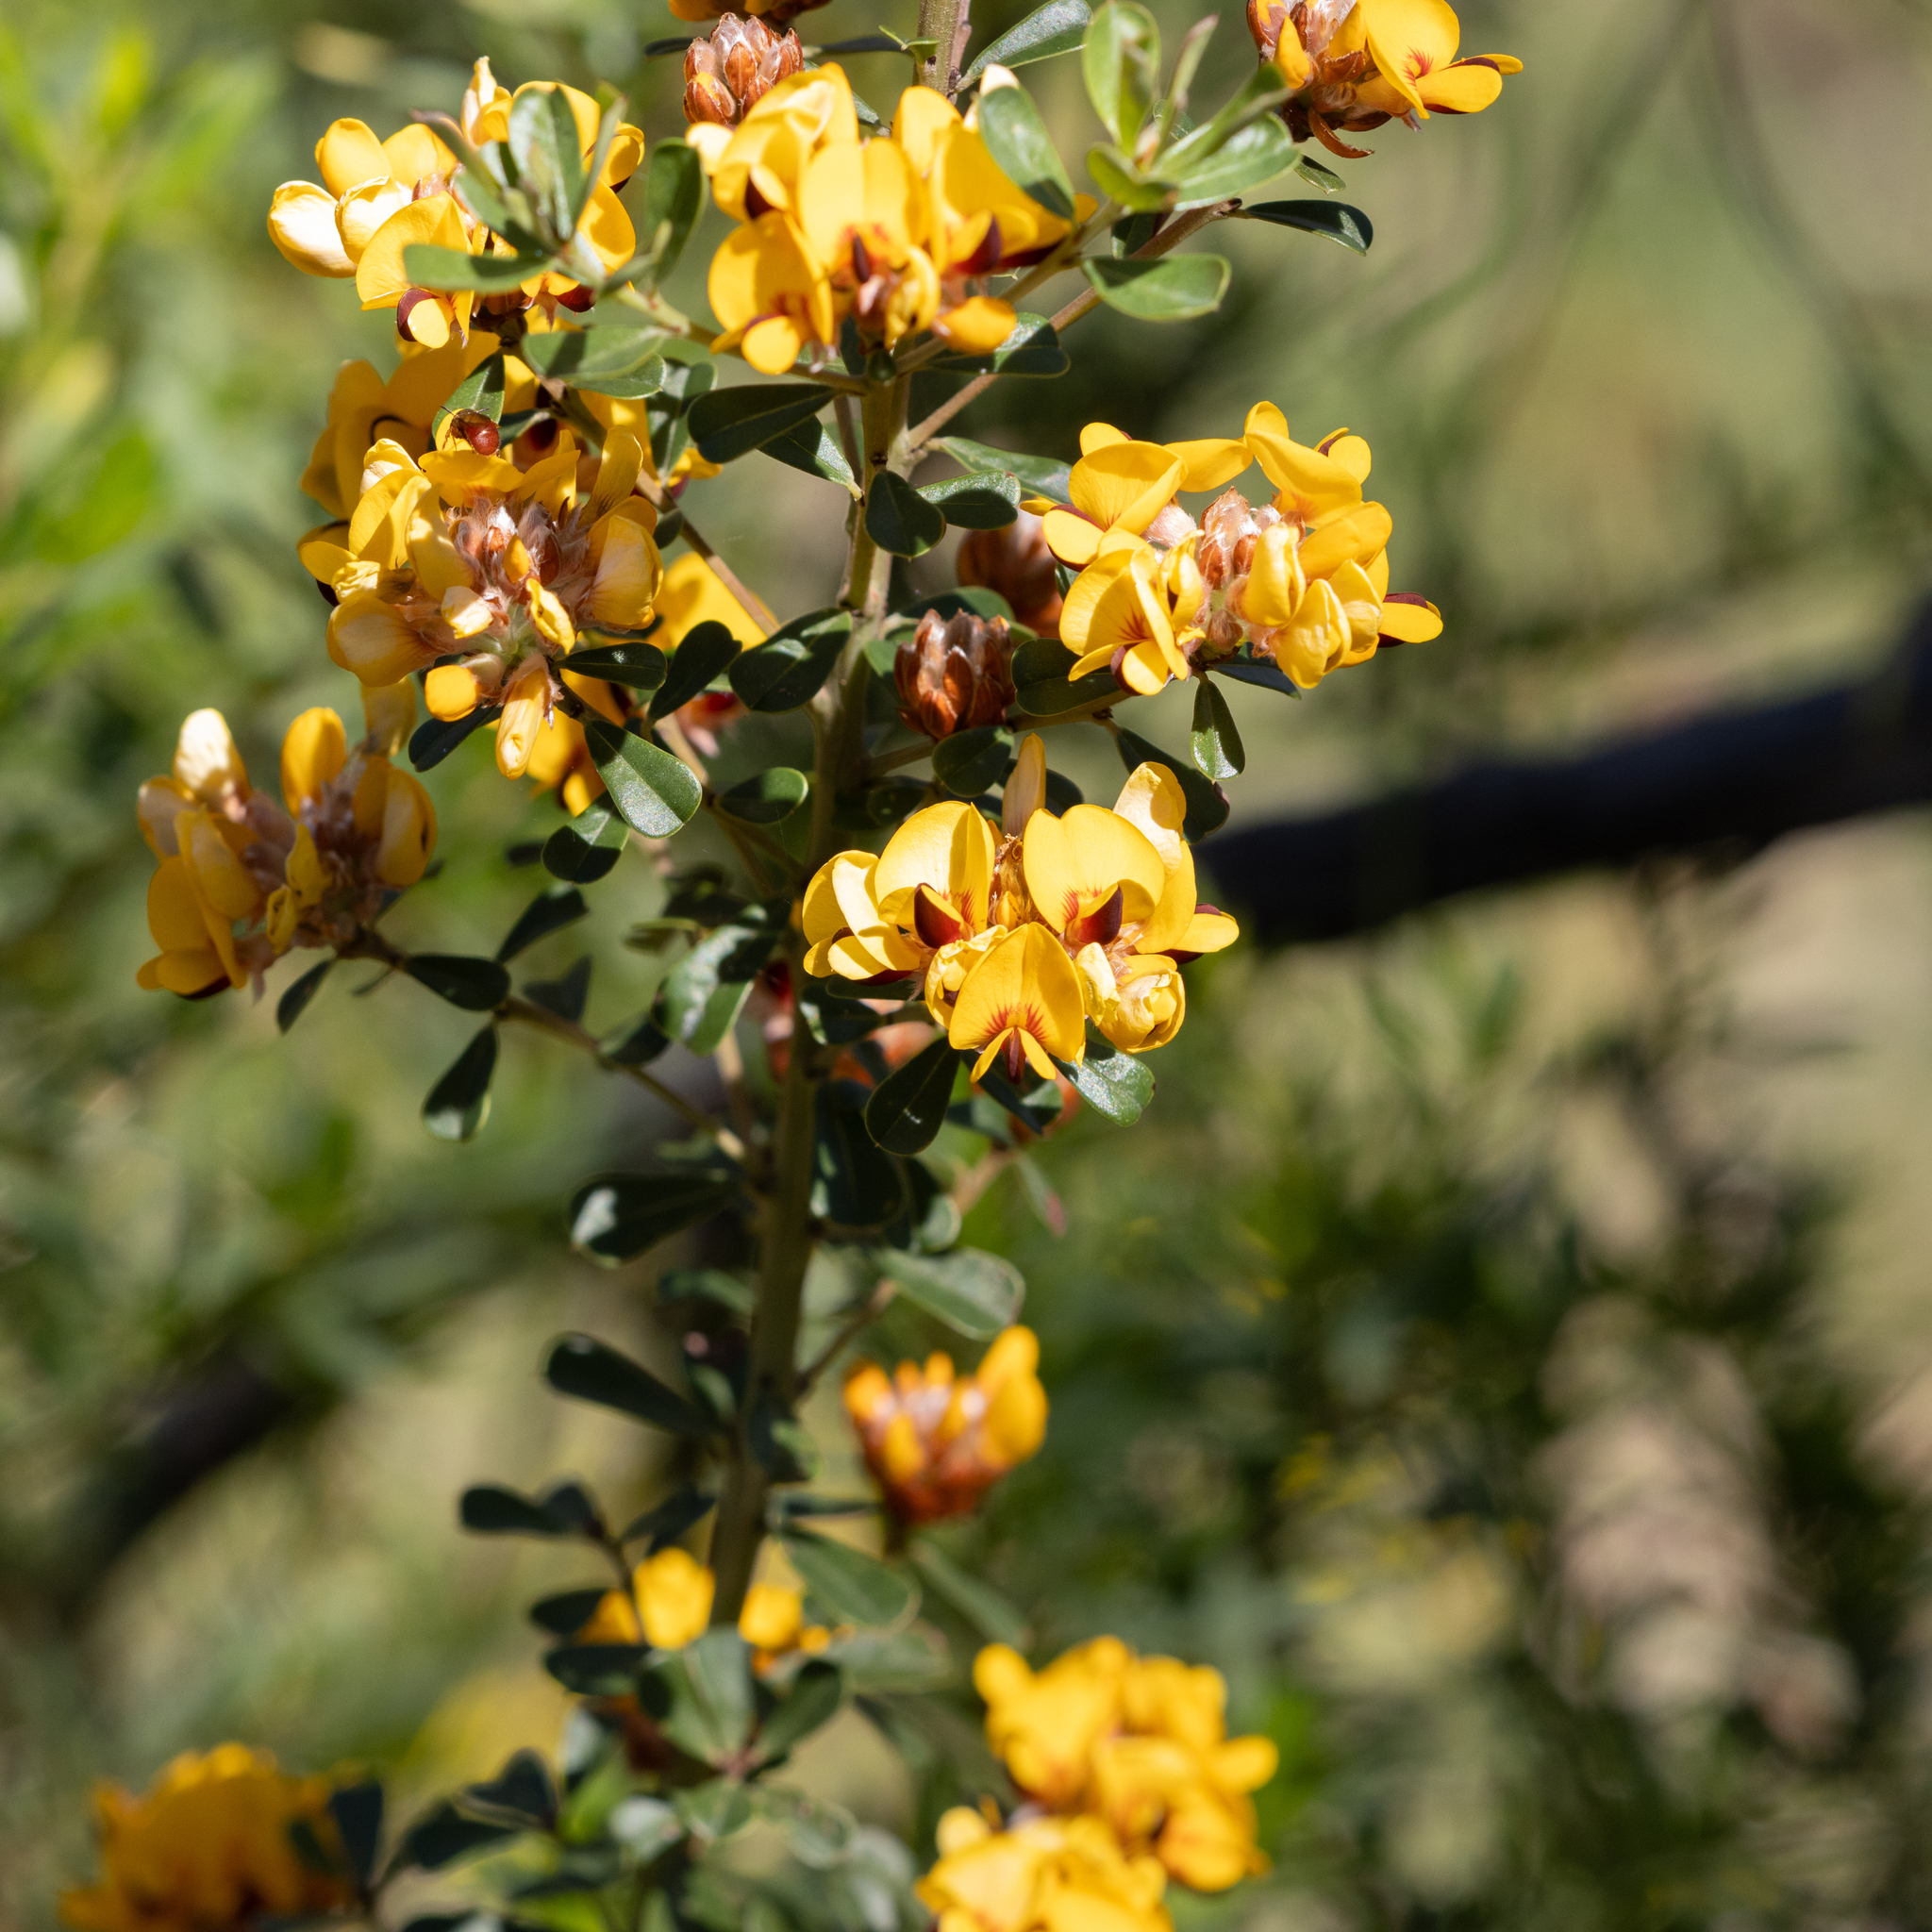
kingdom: Plantae
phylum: Tracheophyta
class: Magnoliopsida
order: Fabales
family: Fabaceae
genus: Pultenaea
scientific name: Pultenaea daphnoides
